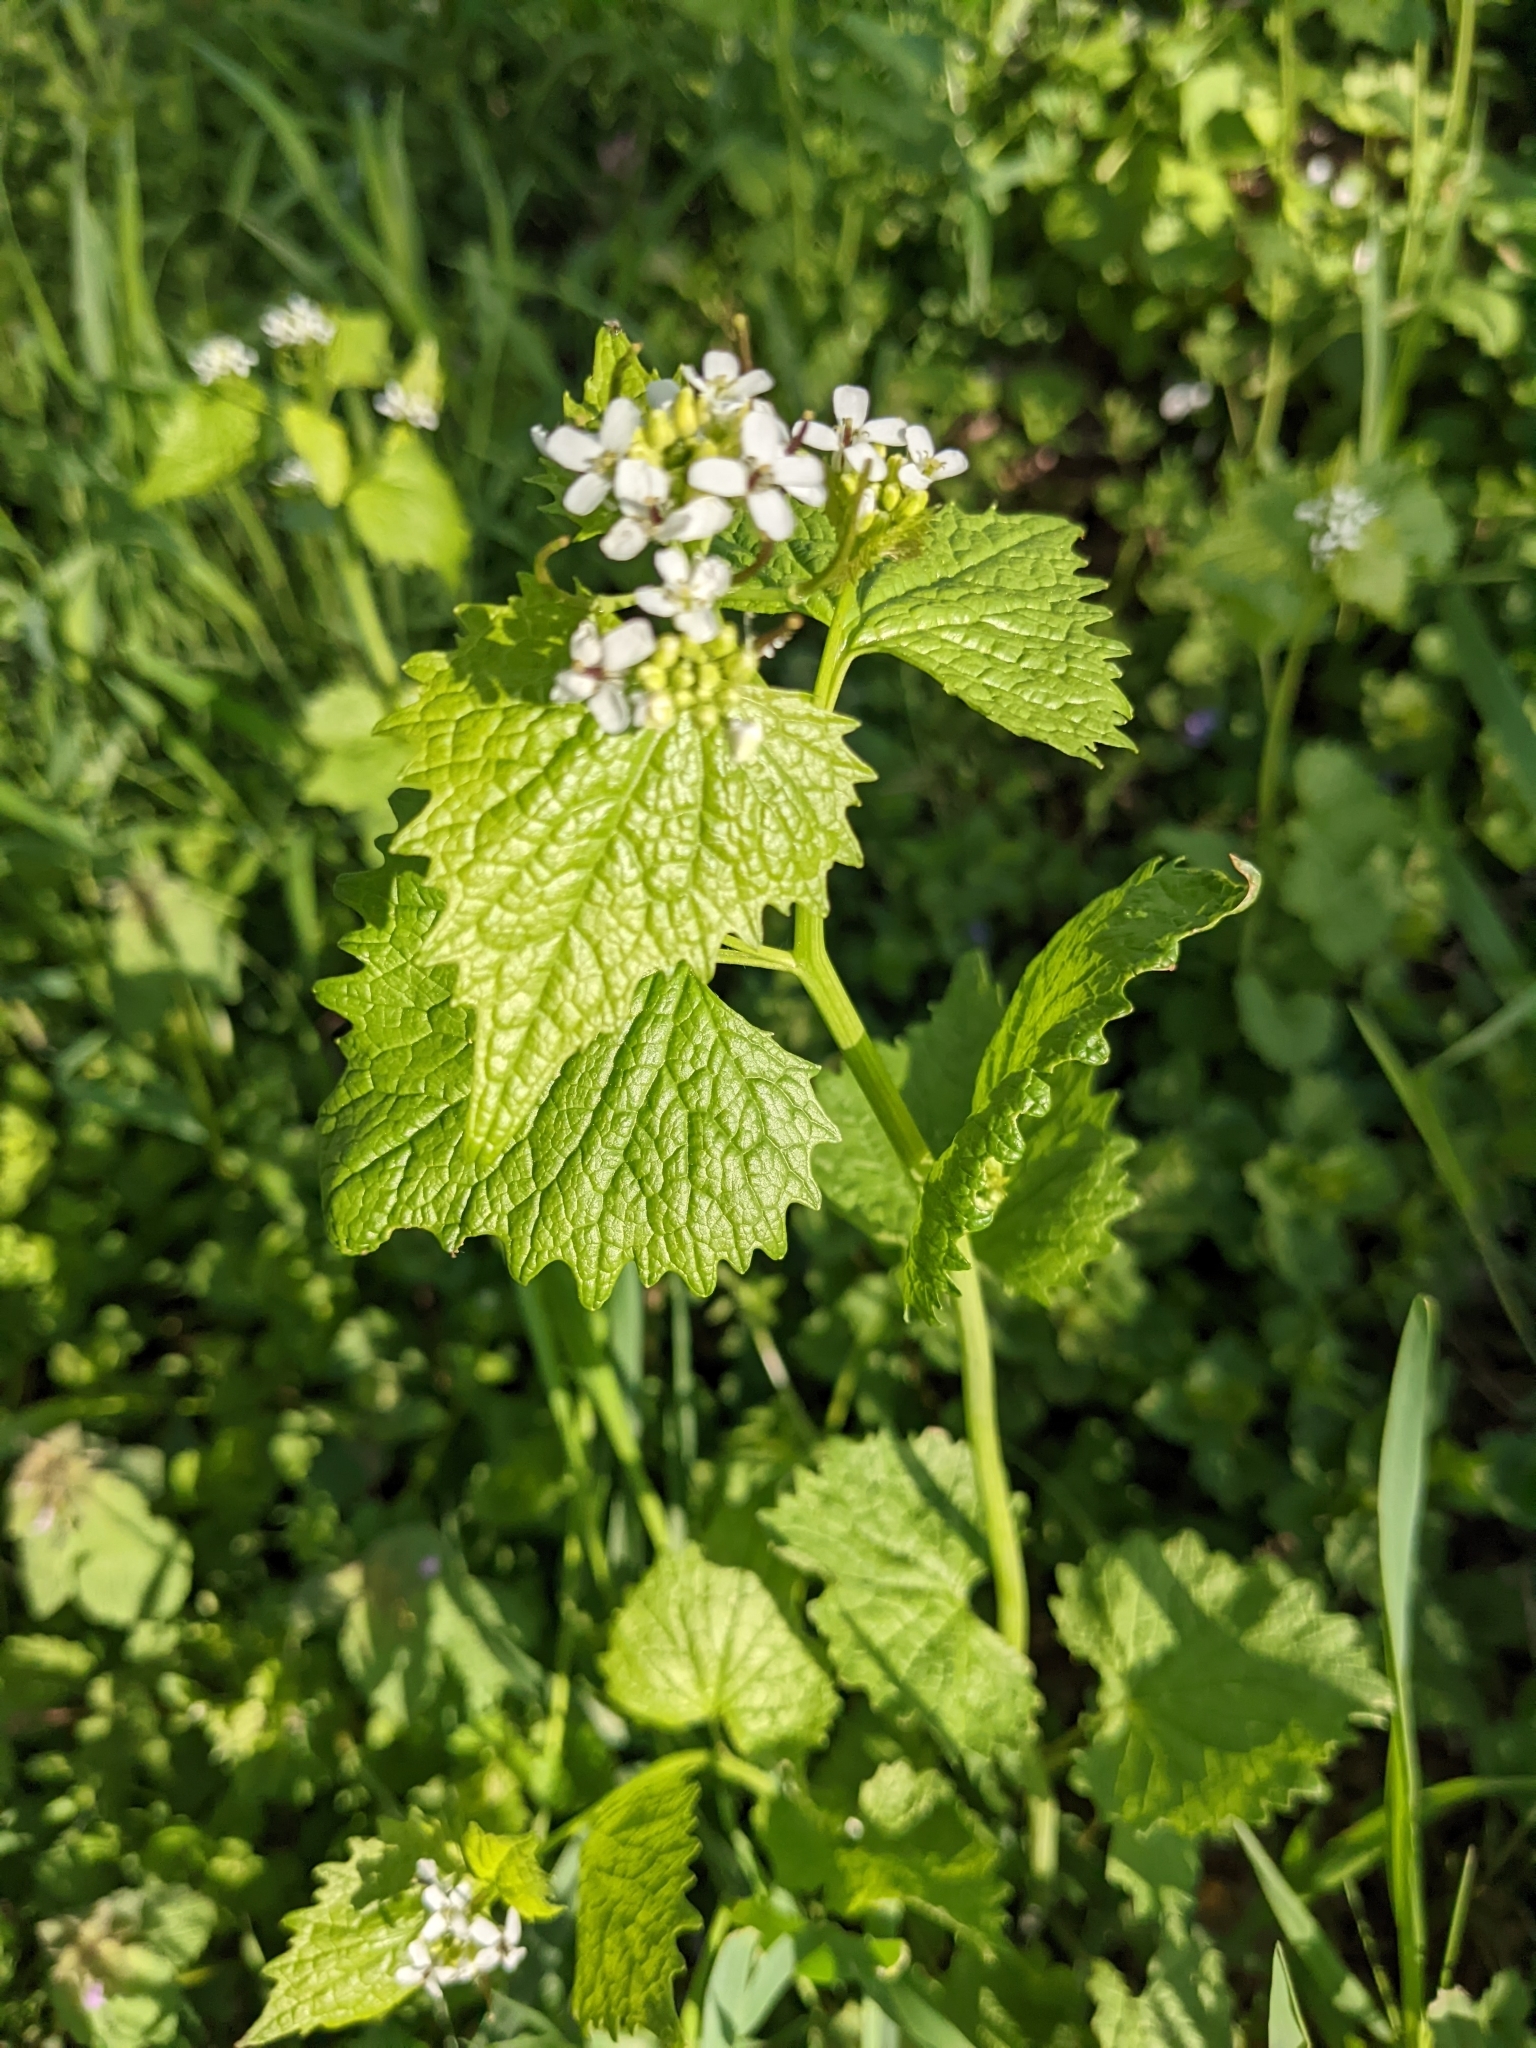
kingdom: Plantae
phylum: Tracheophyta
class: Magnoliopsida
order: Brassicales
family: Brassicaceae
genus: Alliaria
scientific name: Alliaria petiolata
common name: Garlic mustard
